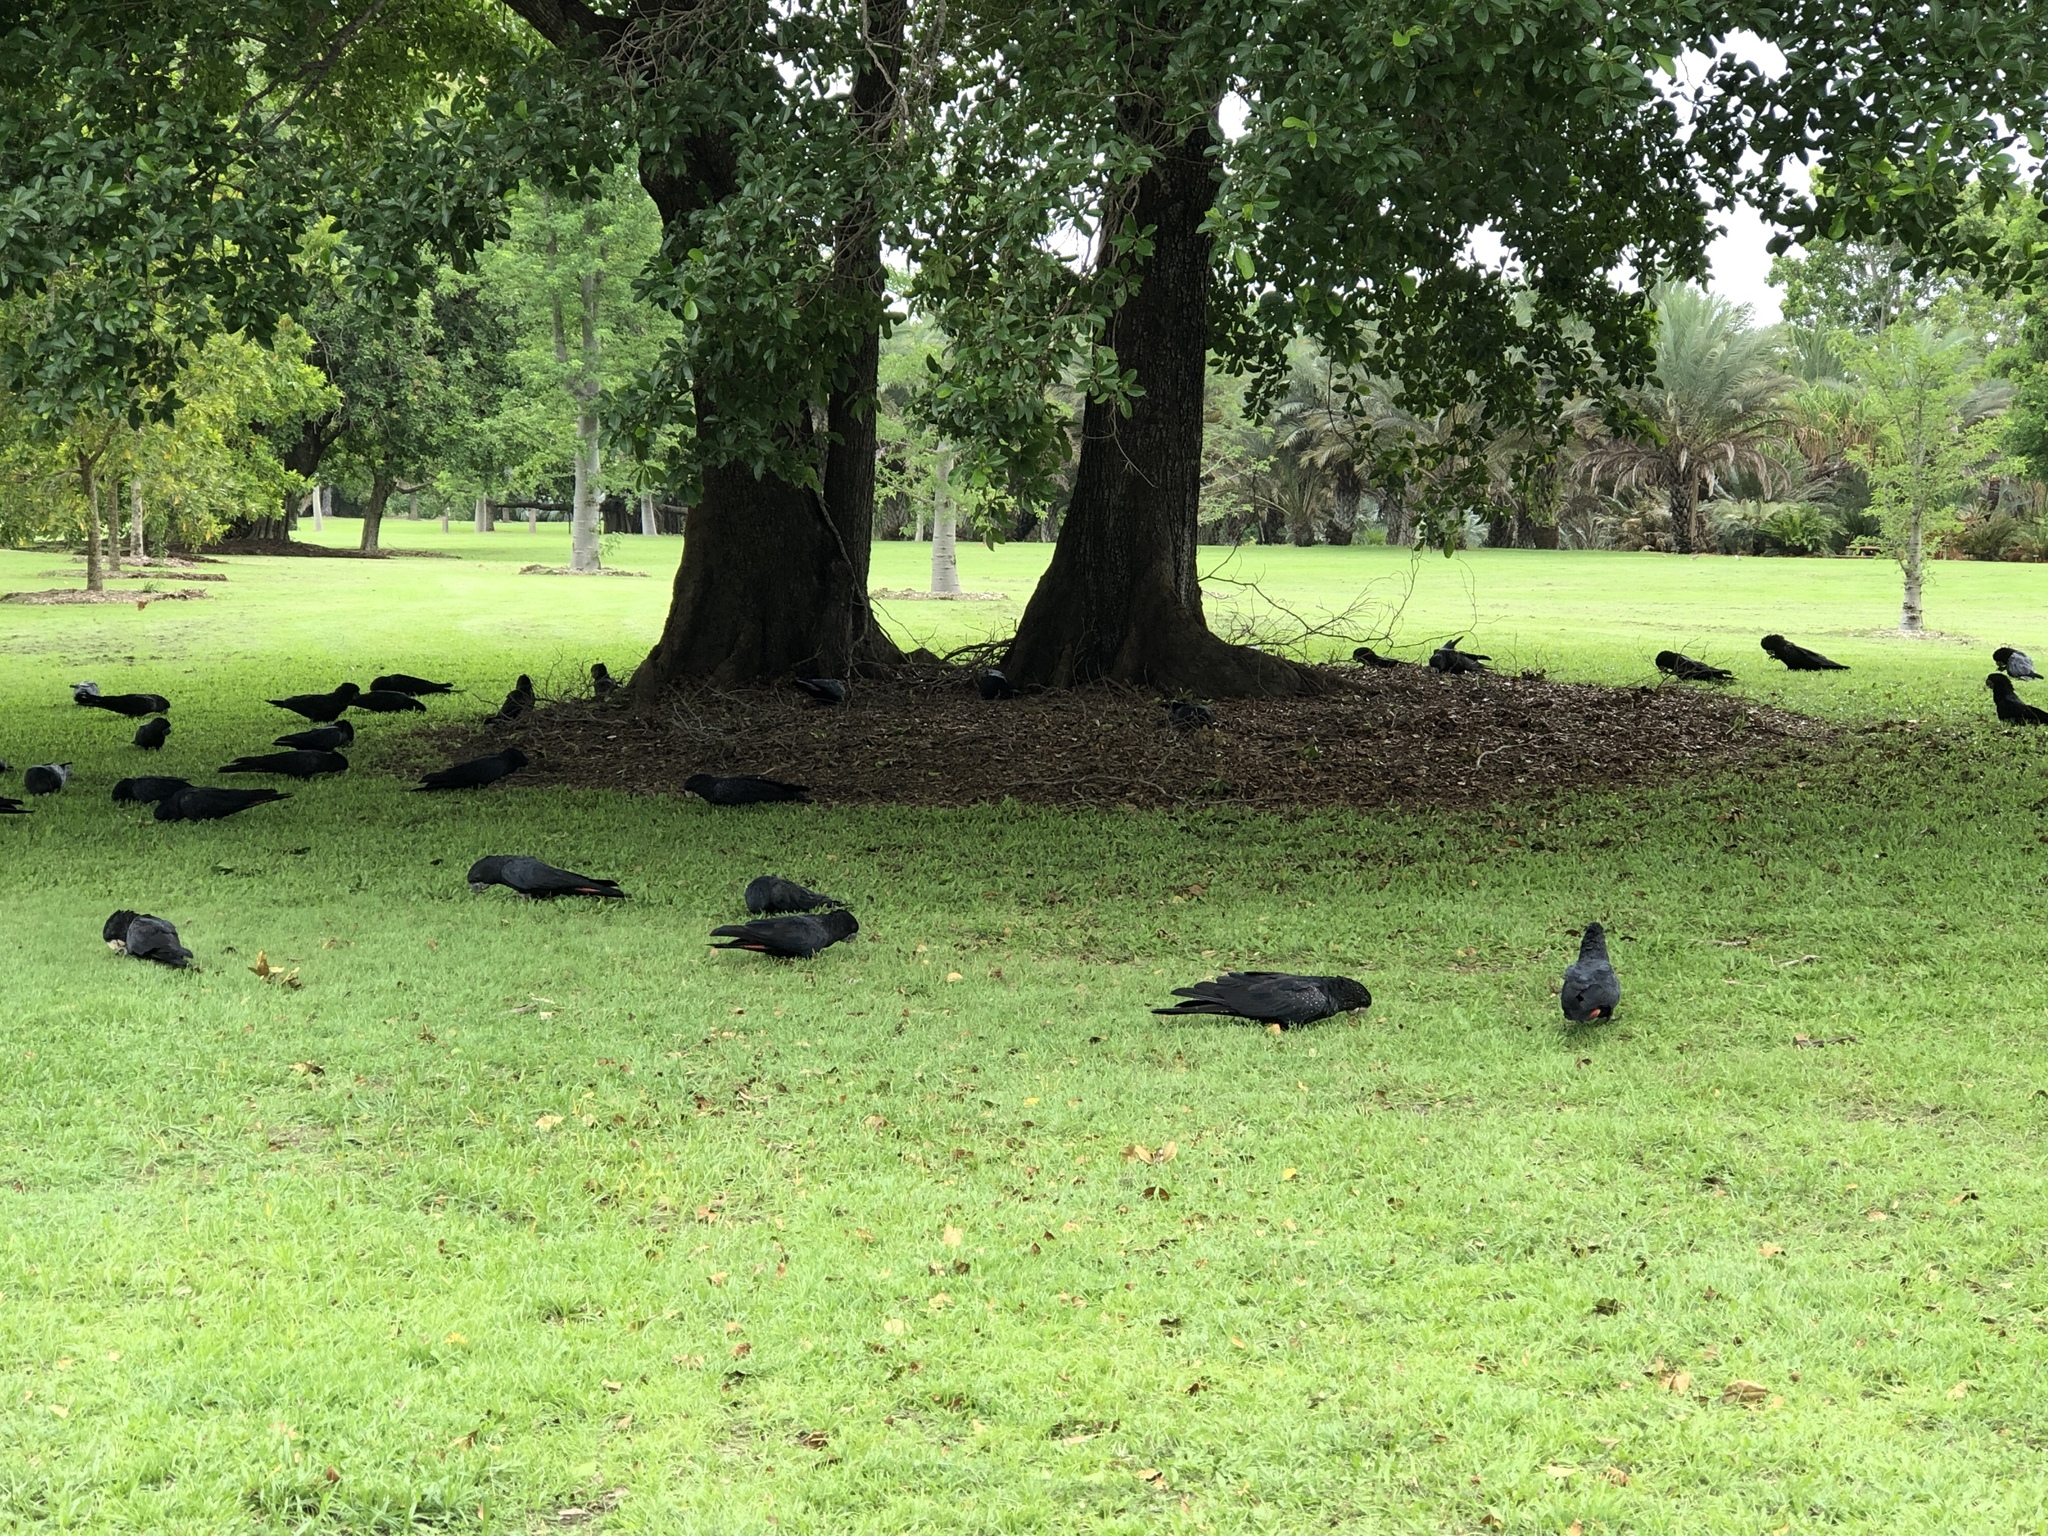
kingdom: Animalia
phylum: Chordata
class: Aves
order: Psittaciformes
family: Psittacidae
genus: Calyptorhynchus
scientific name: Calyptorhynchus banksii
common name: Red-tailed black cockatoo
